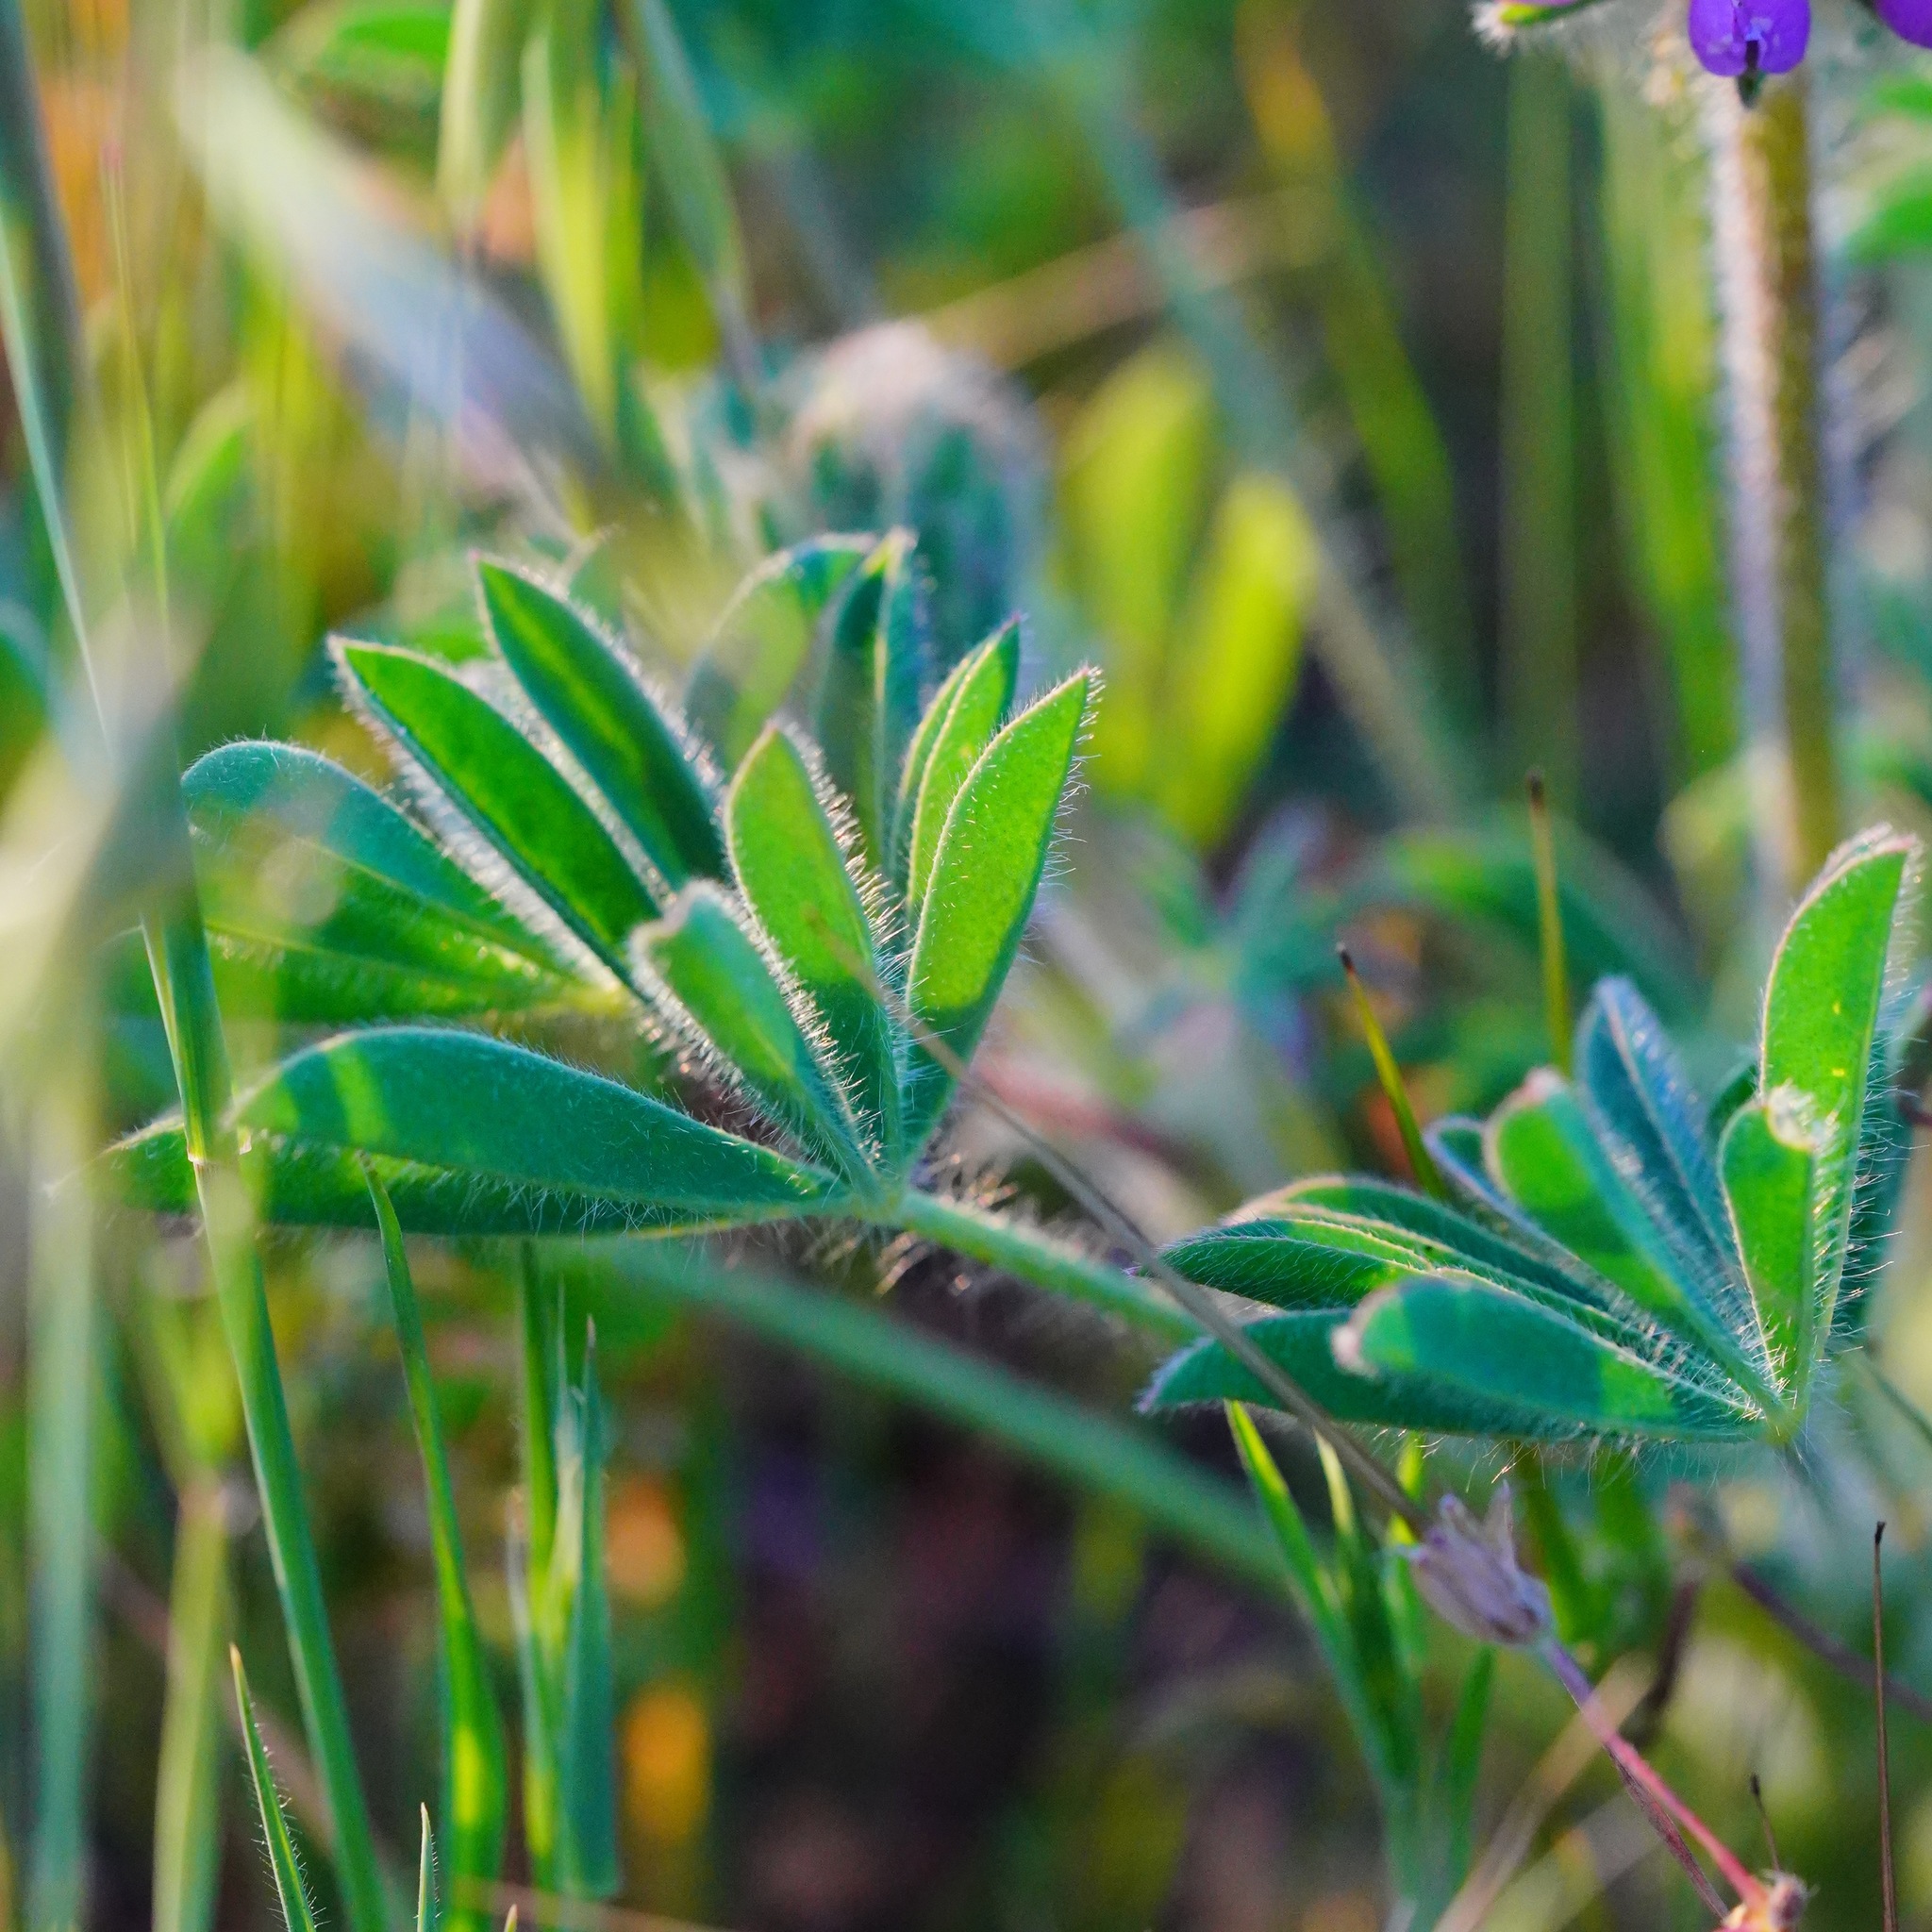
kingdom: Plantae
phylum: Tracheophyta
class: Magnoliopsida
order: Fabales
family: Fabaceae
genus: Lupinus
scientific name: Lupinus microcarpus
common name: Chick lupine
